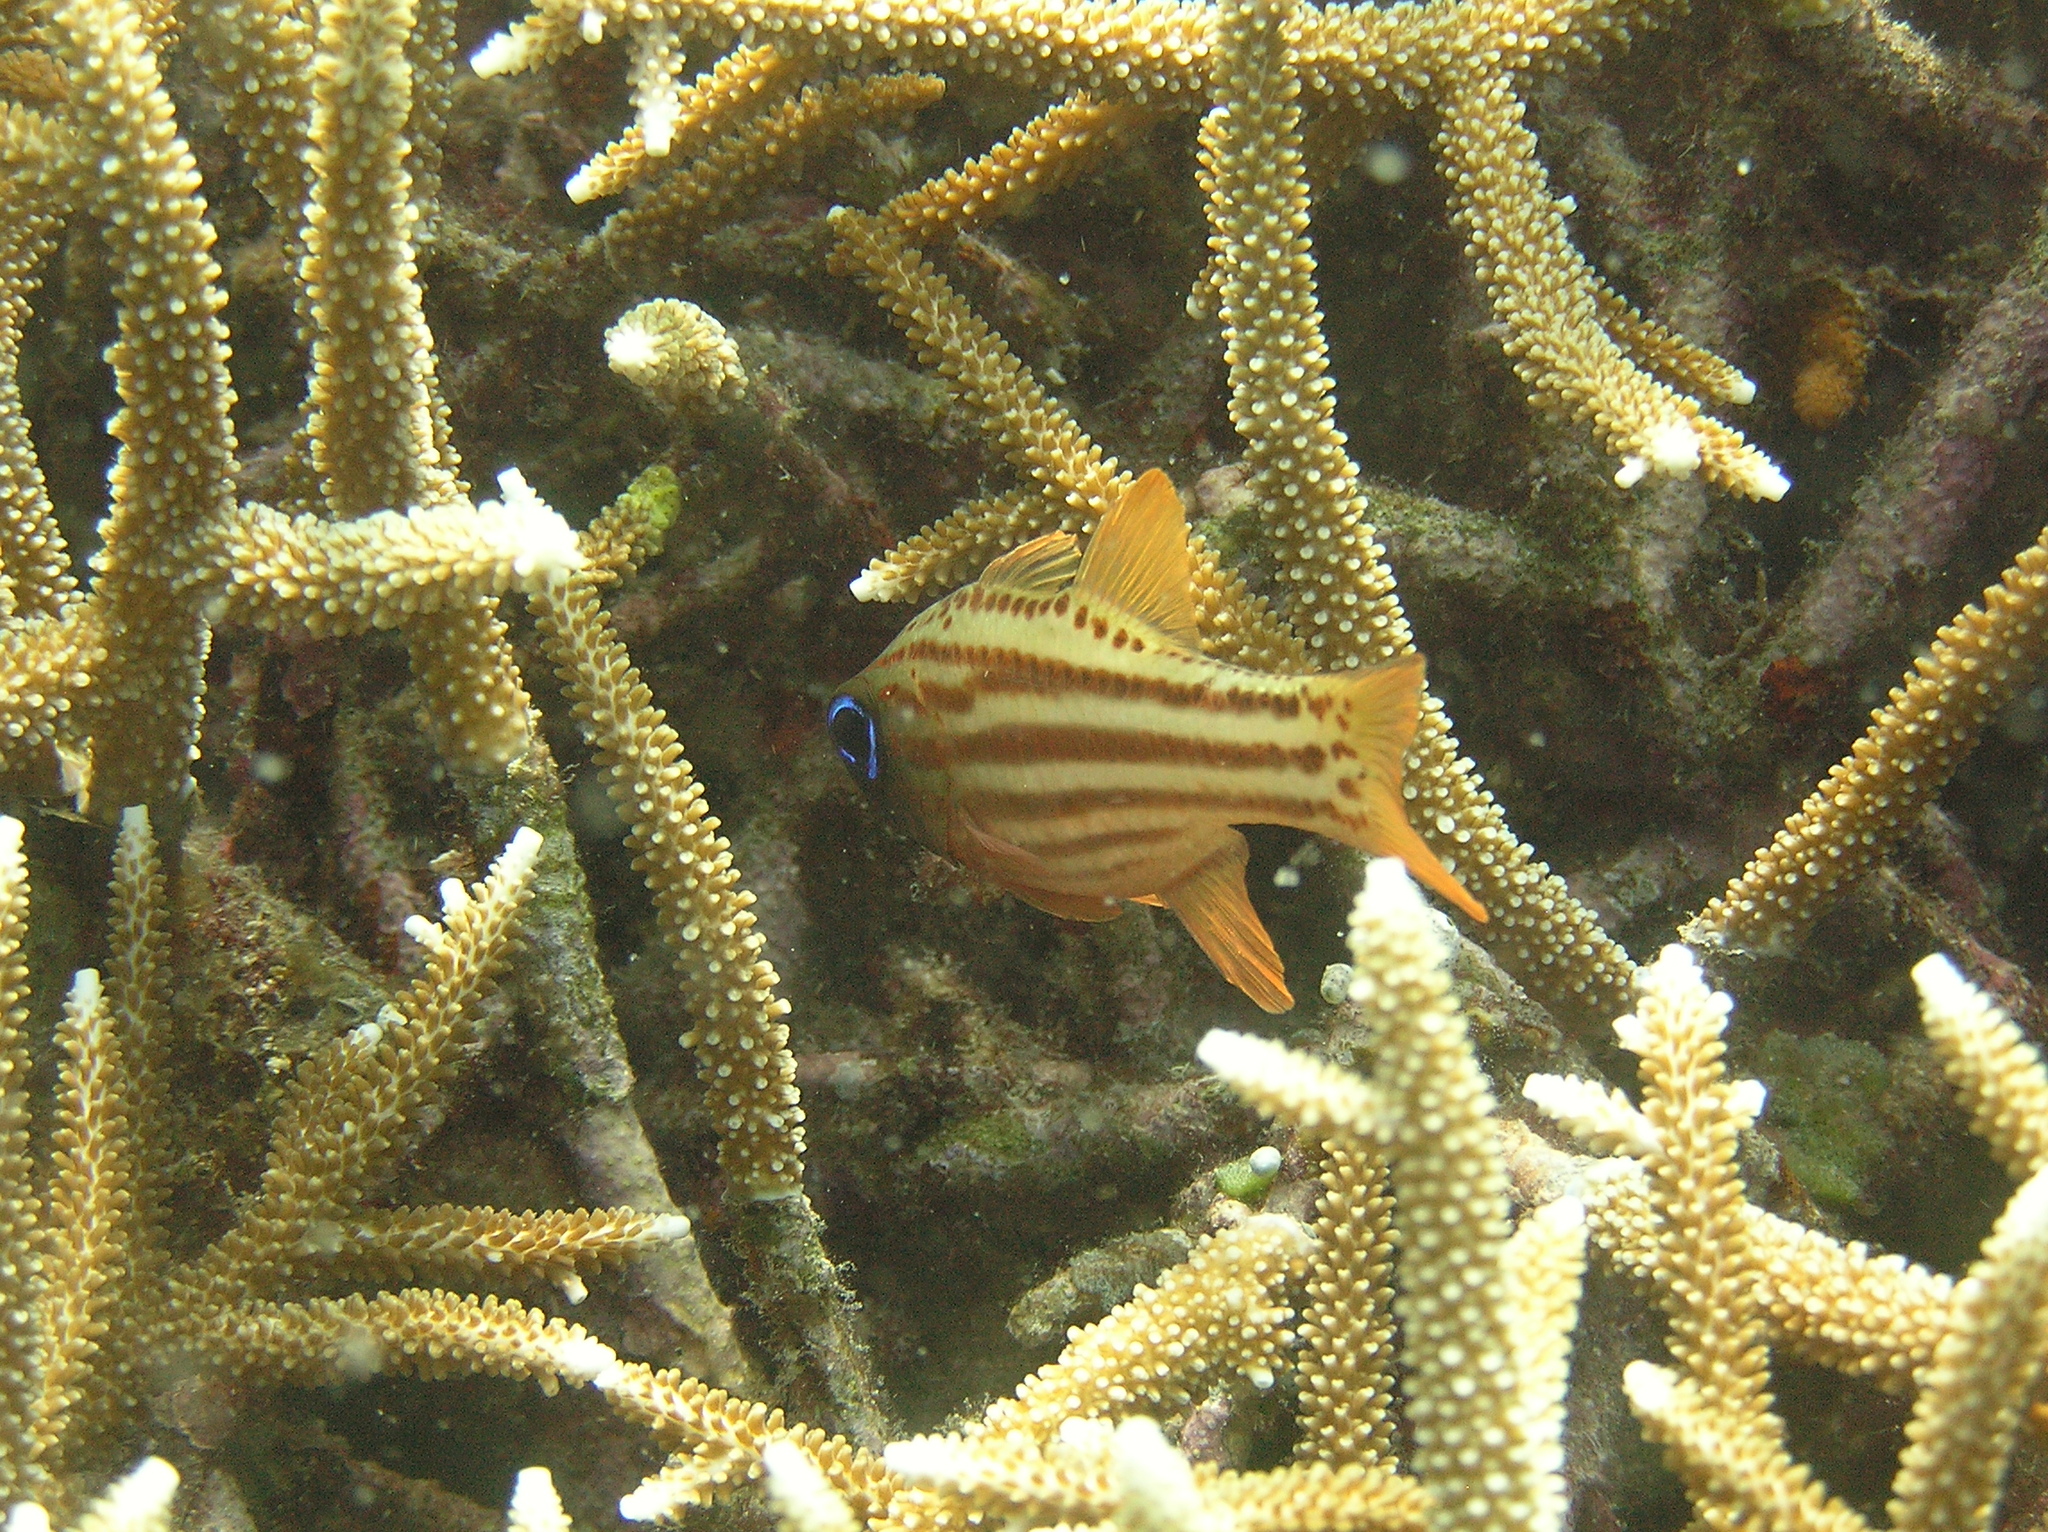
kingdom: Animalia
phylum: Chordata
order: Perciformes
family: Apogonidae
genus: Ostorhinchus
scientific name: Ostorhinchus compressus
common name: Ochre-striped cardinalfish
